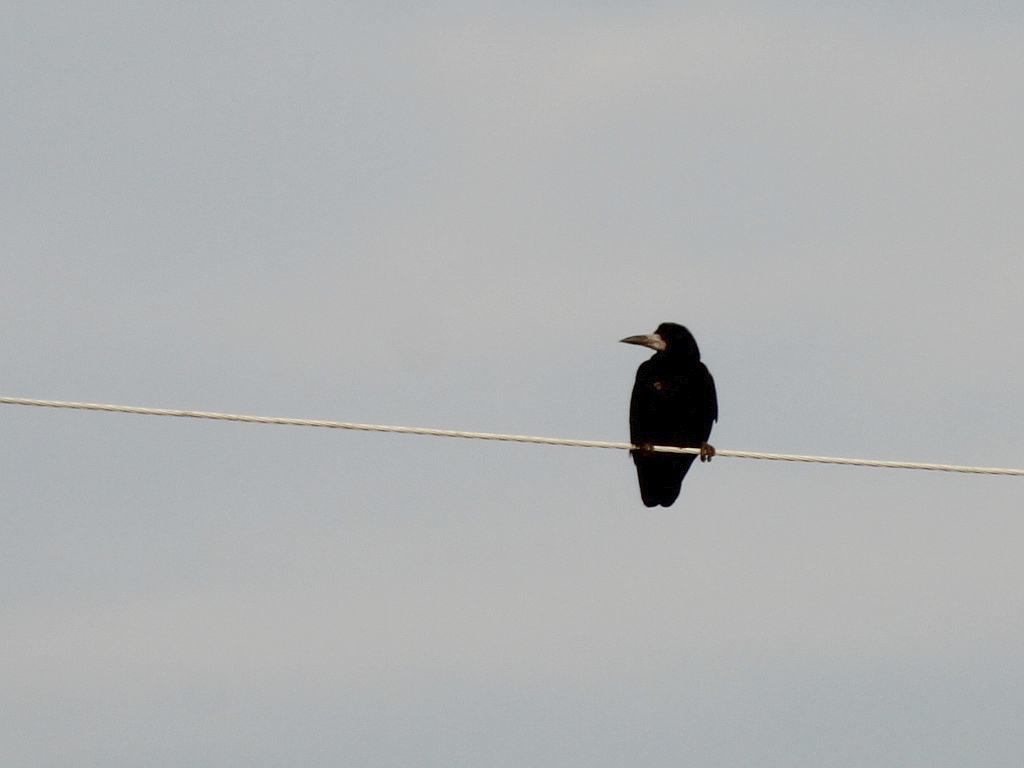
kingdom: Animalia
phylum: Chordata
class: Aves
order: Passeriformes
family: Corvidae
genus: Corvus
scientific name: Corvus frugilegus
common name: Rook
